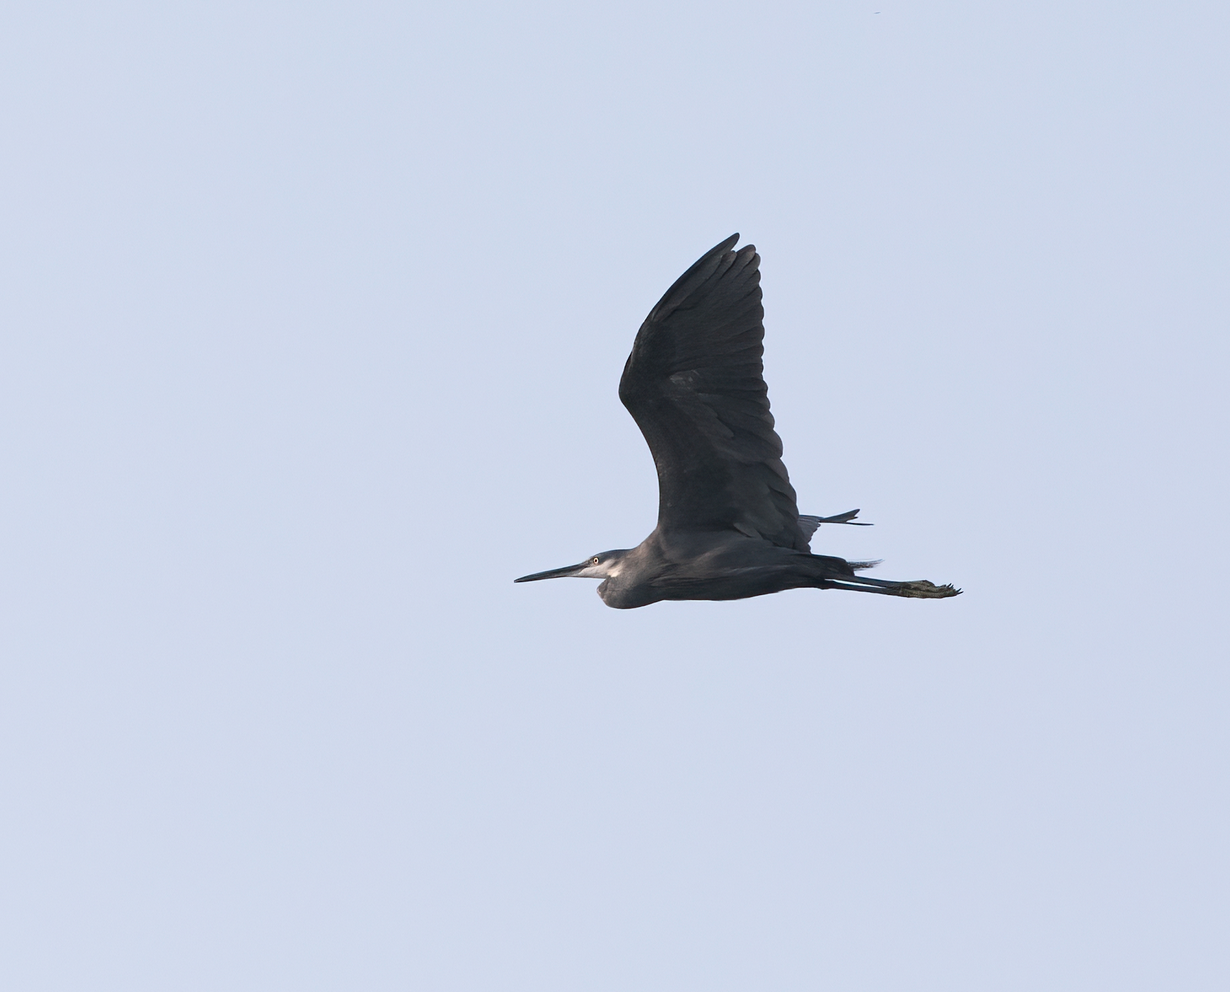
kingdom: Animalia
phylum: Chordata
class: Aves
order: Pelecaniformes
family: Ardeidae
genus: Egretta
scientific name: Egretta gularis
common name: Western reef-heron
